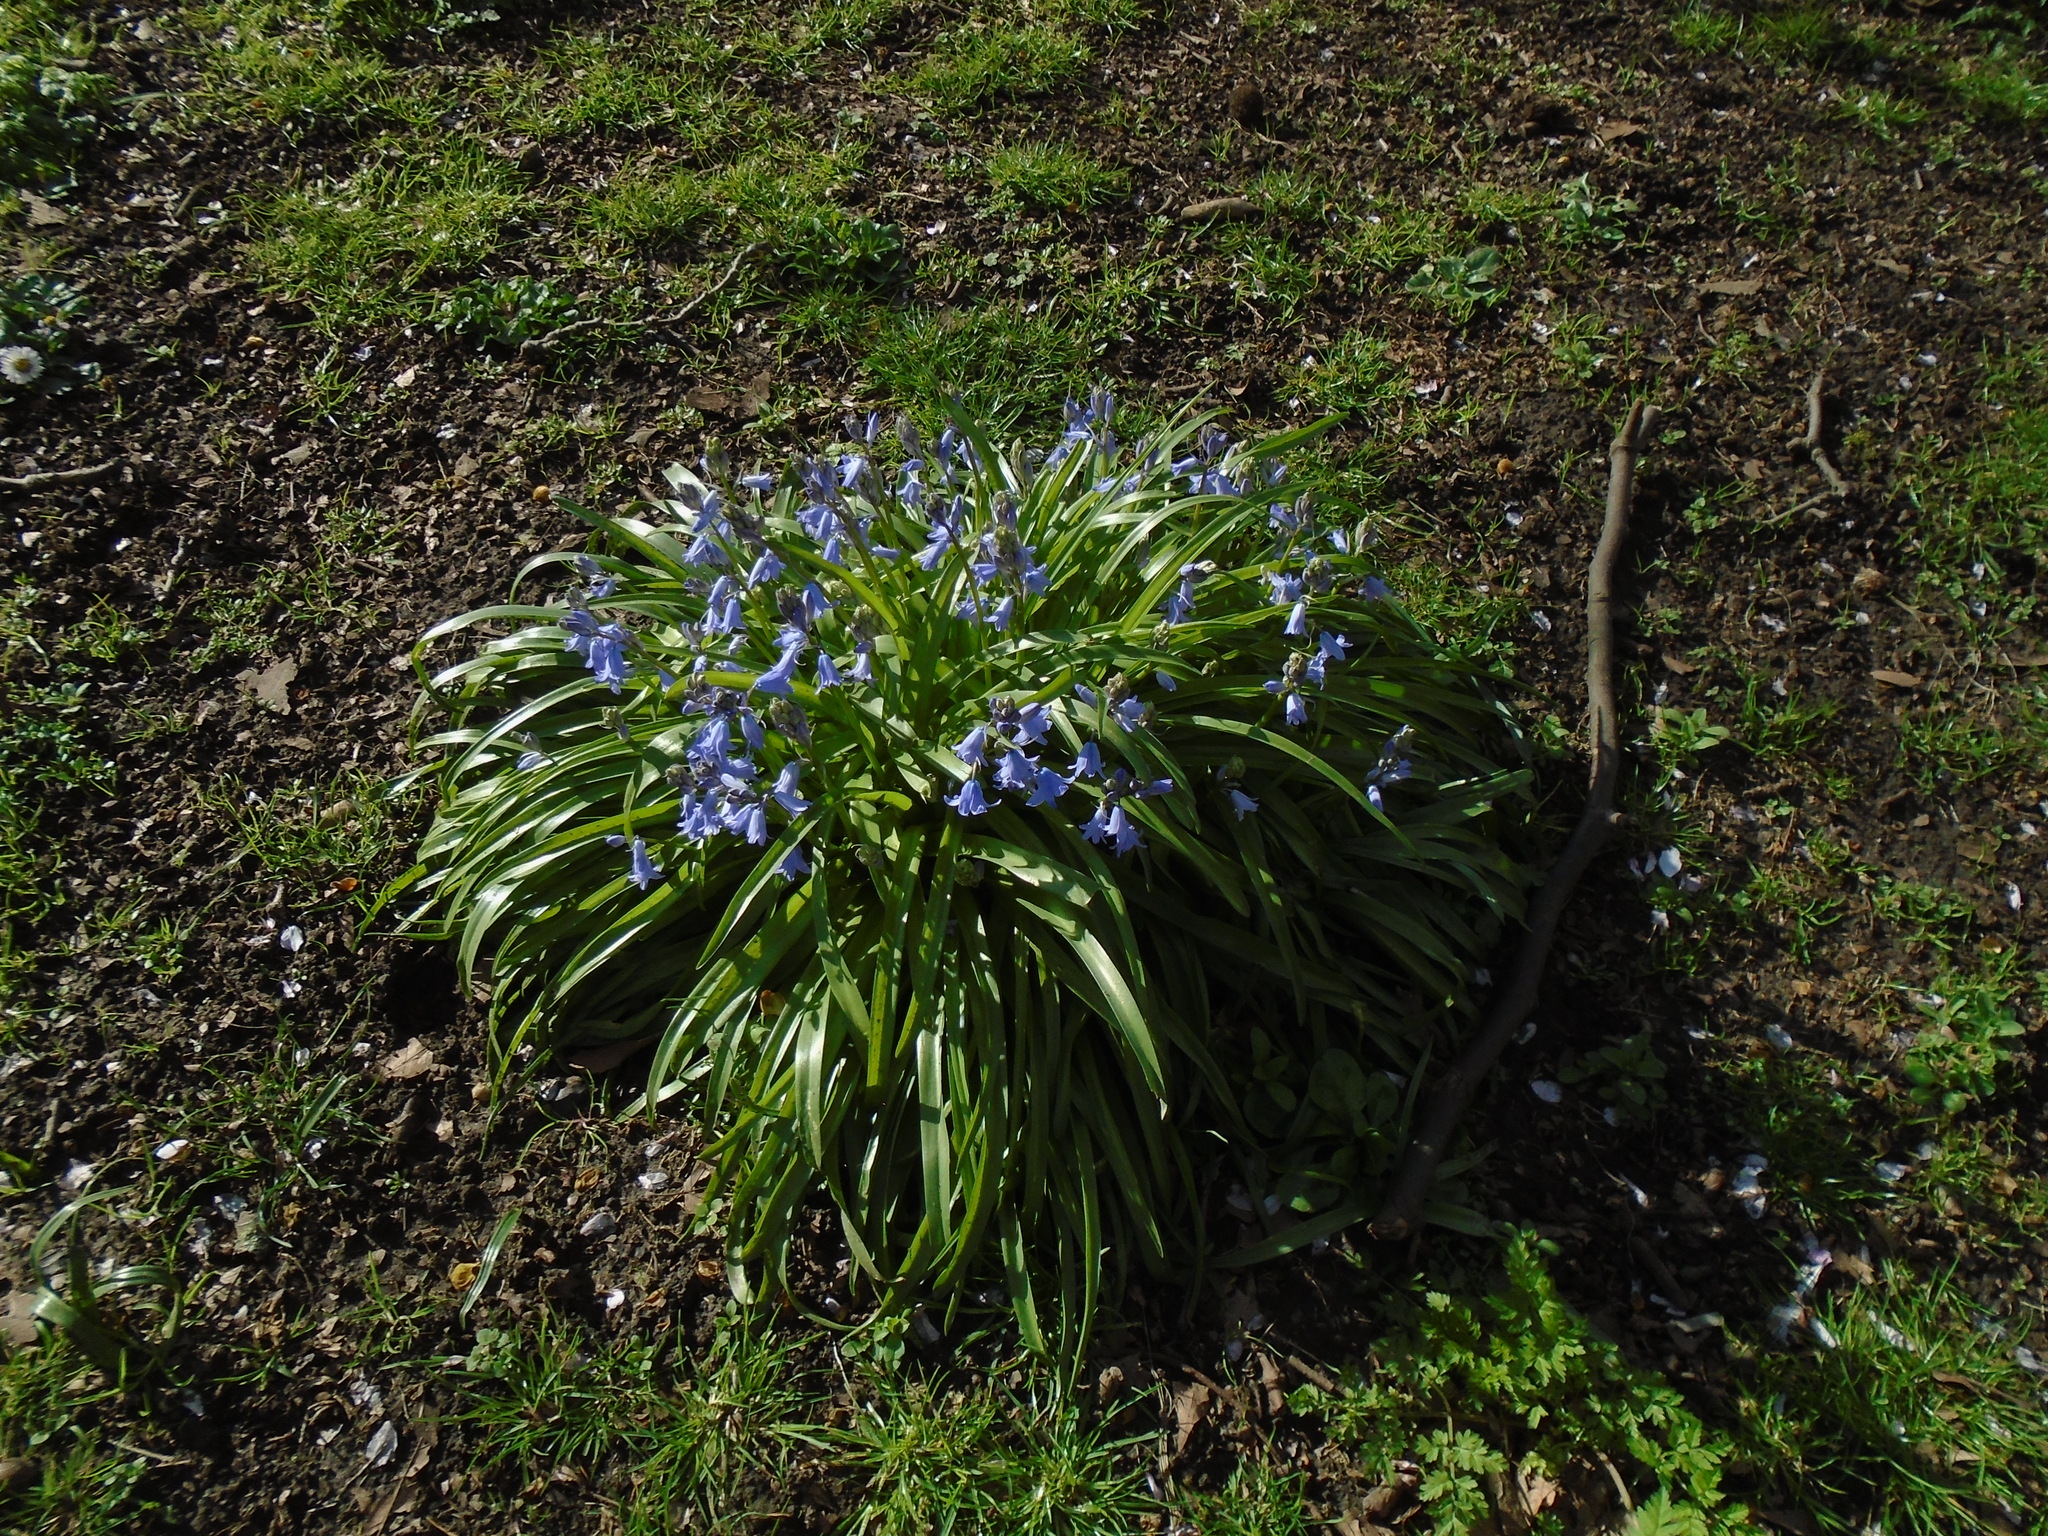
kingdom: Plantae
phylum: Tracheophyta
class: Liliopsida
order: Asparagales
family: Asparagaceae
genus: Hyacinthoides
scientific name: Hyacinthoides hispanica
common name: Spanish bluebell
